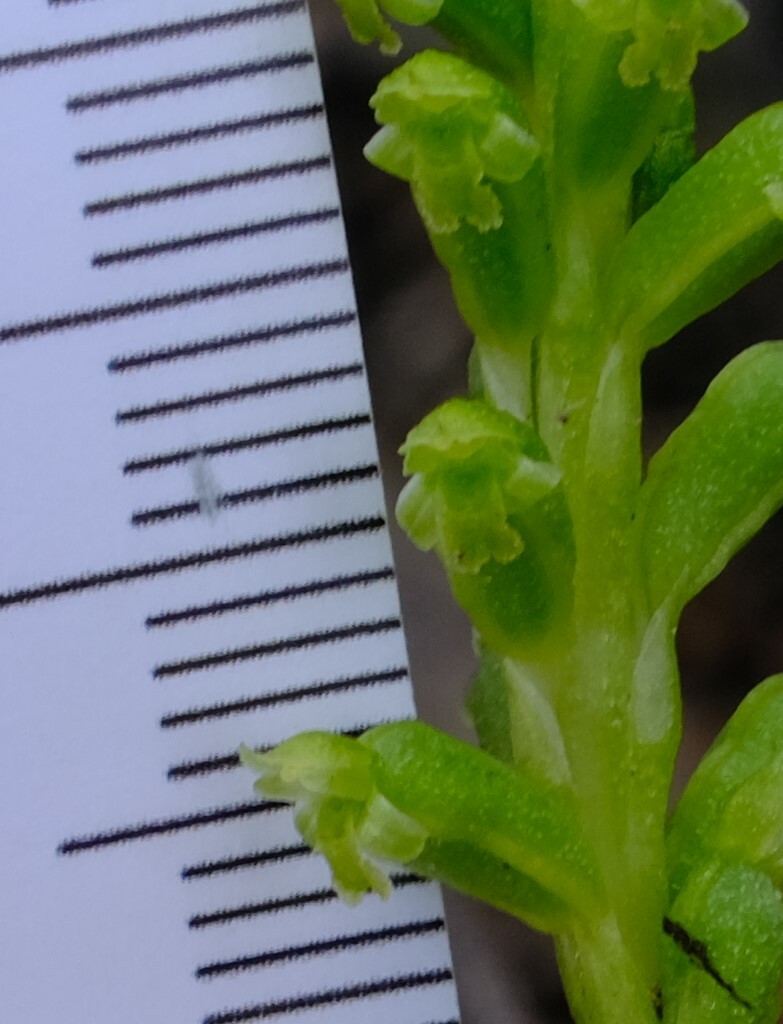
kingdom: Plantae
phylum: Tracheophyta
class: Liliopsida
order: Asparagales
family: Orchidaceae
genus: Microtis
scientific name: Microtis unifolia
